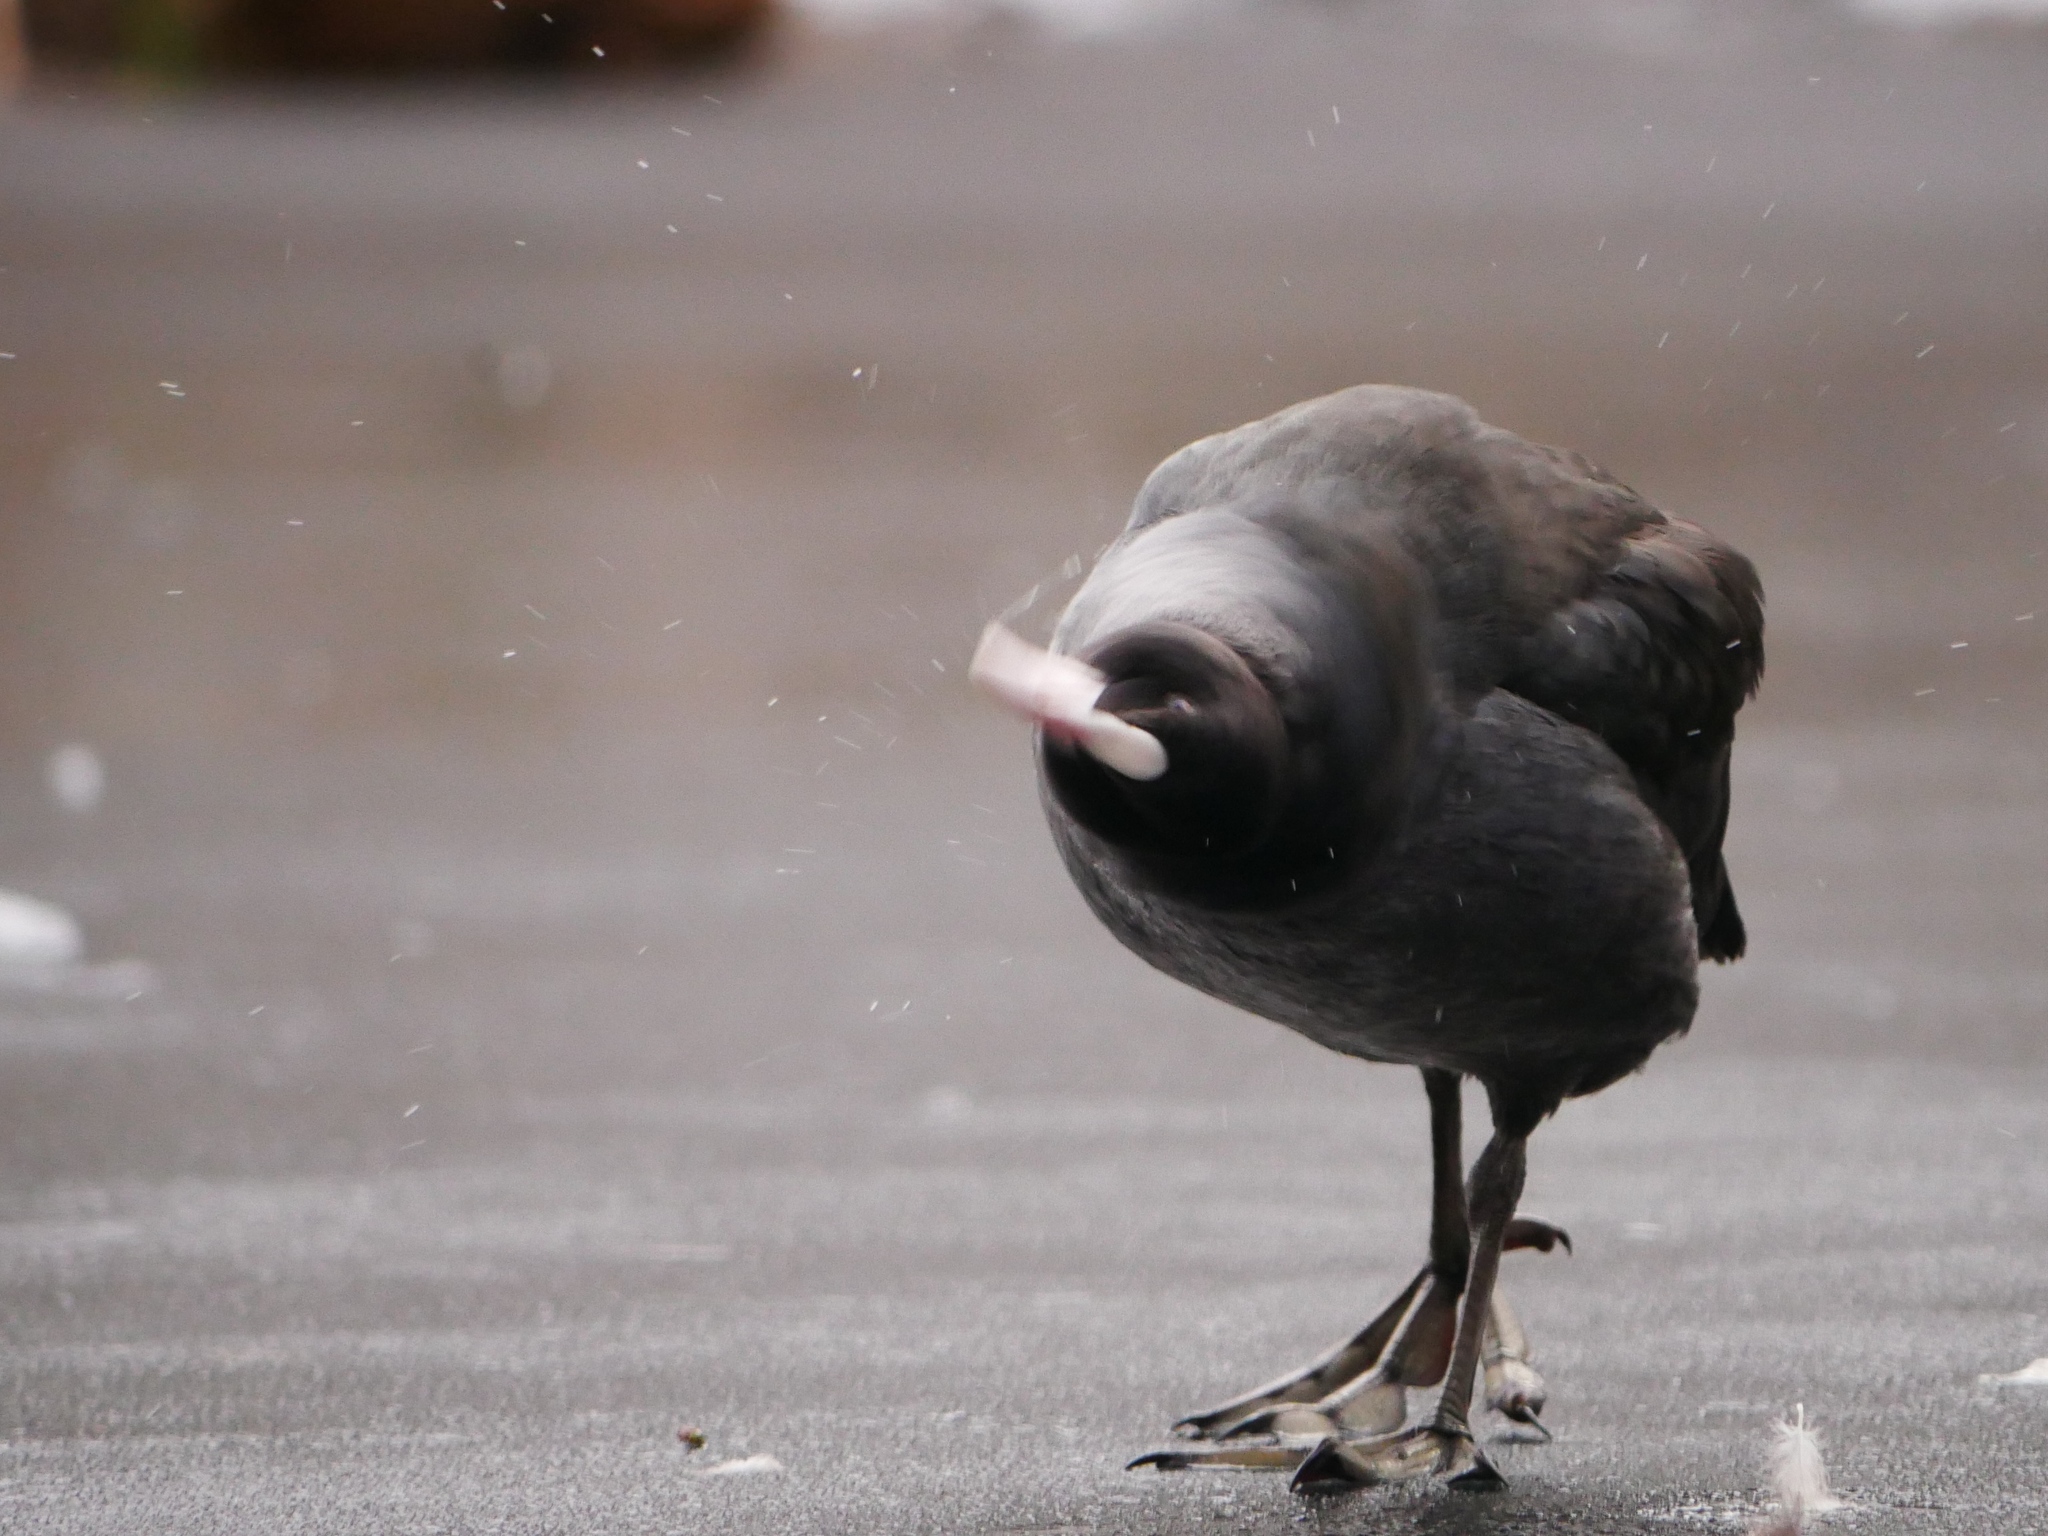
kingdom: Animalia
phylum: Chordata
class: Aves
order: Gruiformes
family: Rallidae
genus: Fulica
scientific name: Fulica atra
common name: Eurasian coot
